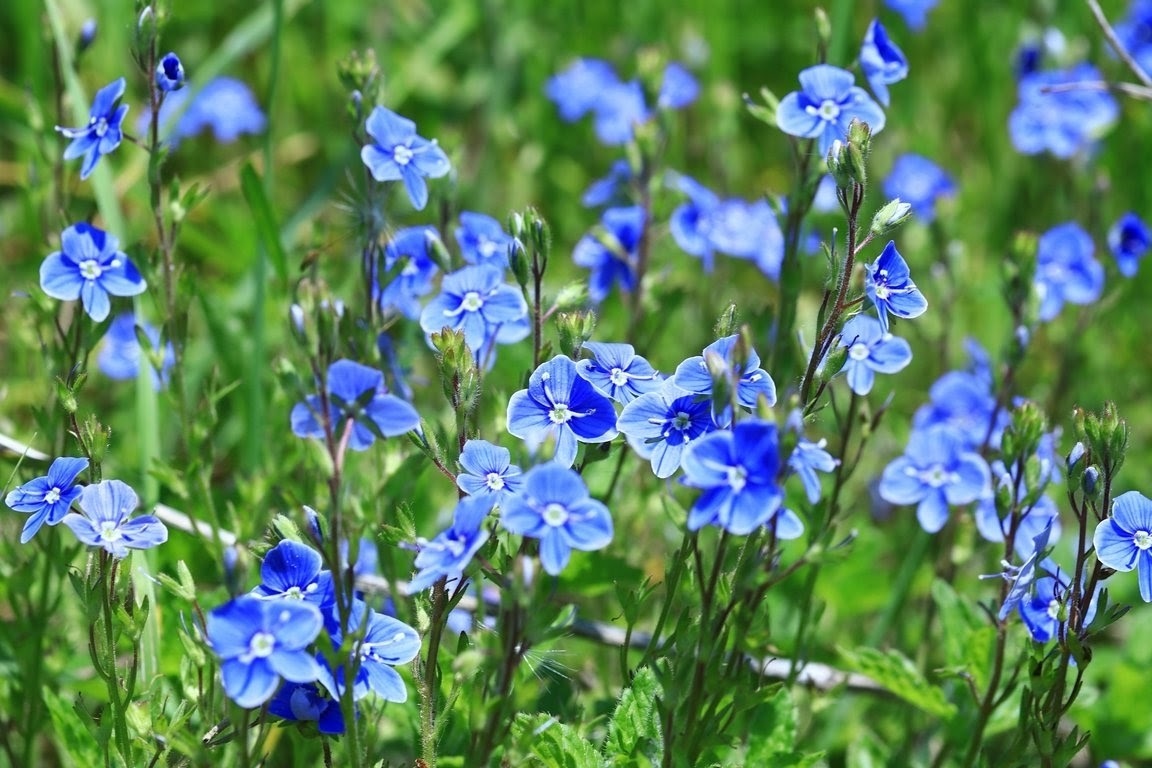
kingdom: Plantae
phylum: Tracheophyta
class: Magnoliopsida
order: Lamiales
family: Plantaginaceae
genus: Veronica
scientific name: Veronica chamaedrys
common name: Germander speedwell
